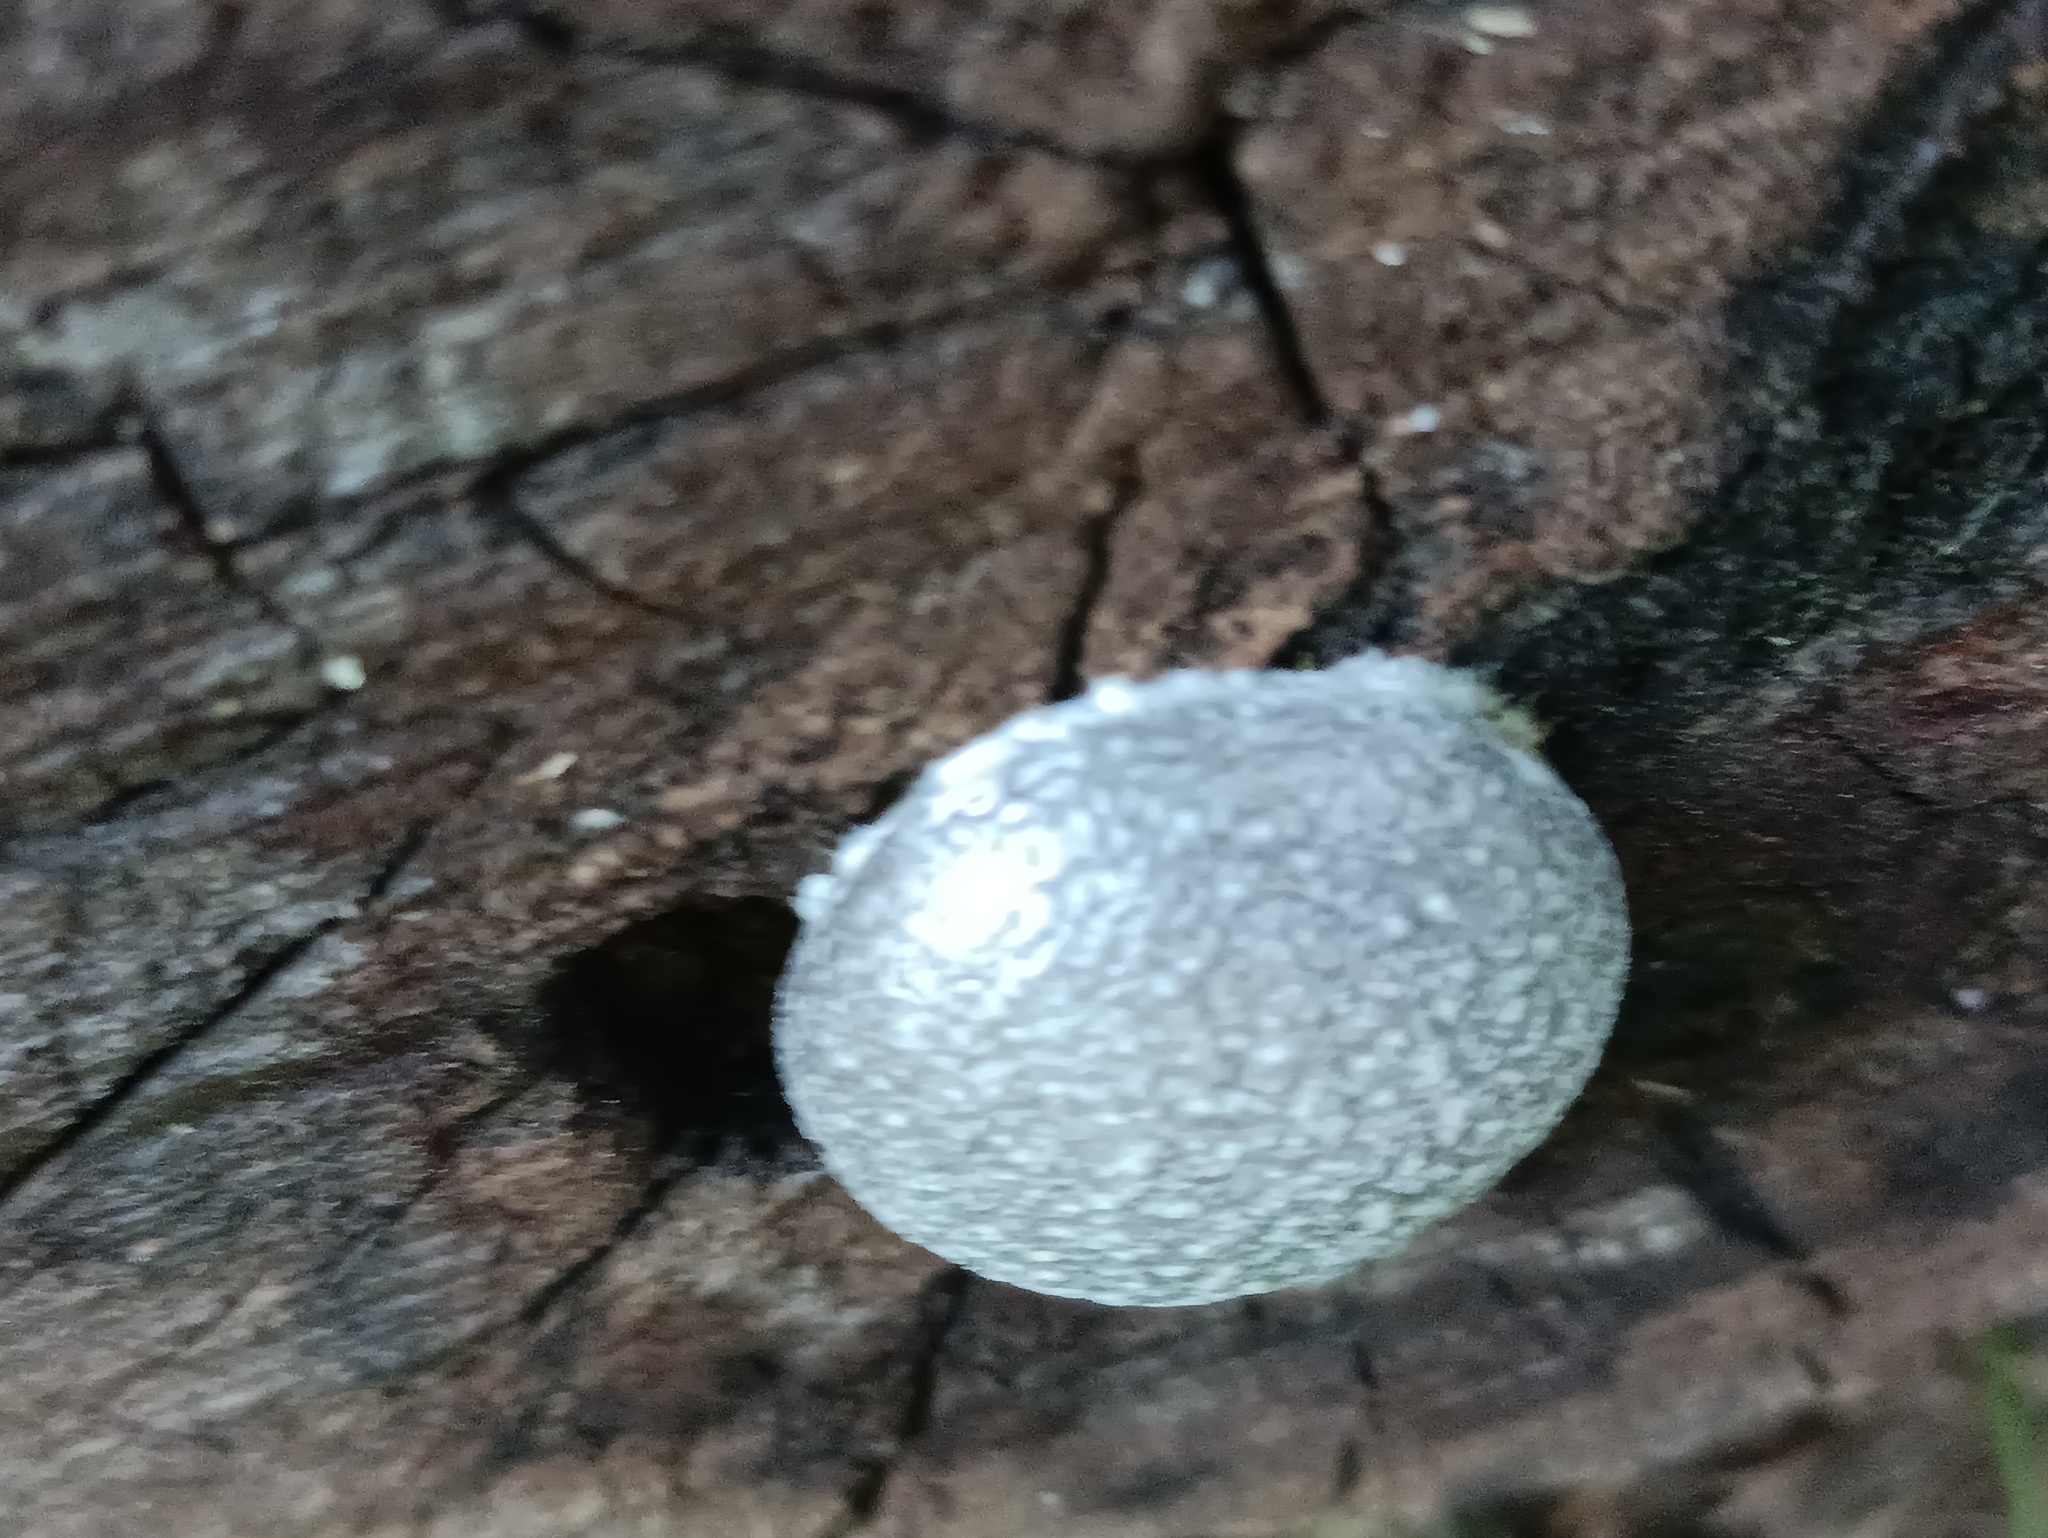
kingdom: Protozoa
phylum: Mycetozoa
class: Myxomycetes
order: Cribrariales
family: Tubiferaceae
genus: Reticularia
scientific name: Reticularia lycoperdon
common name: False puffball
